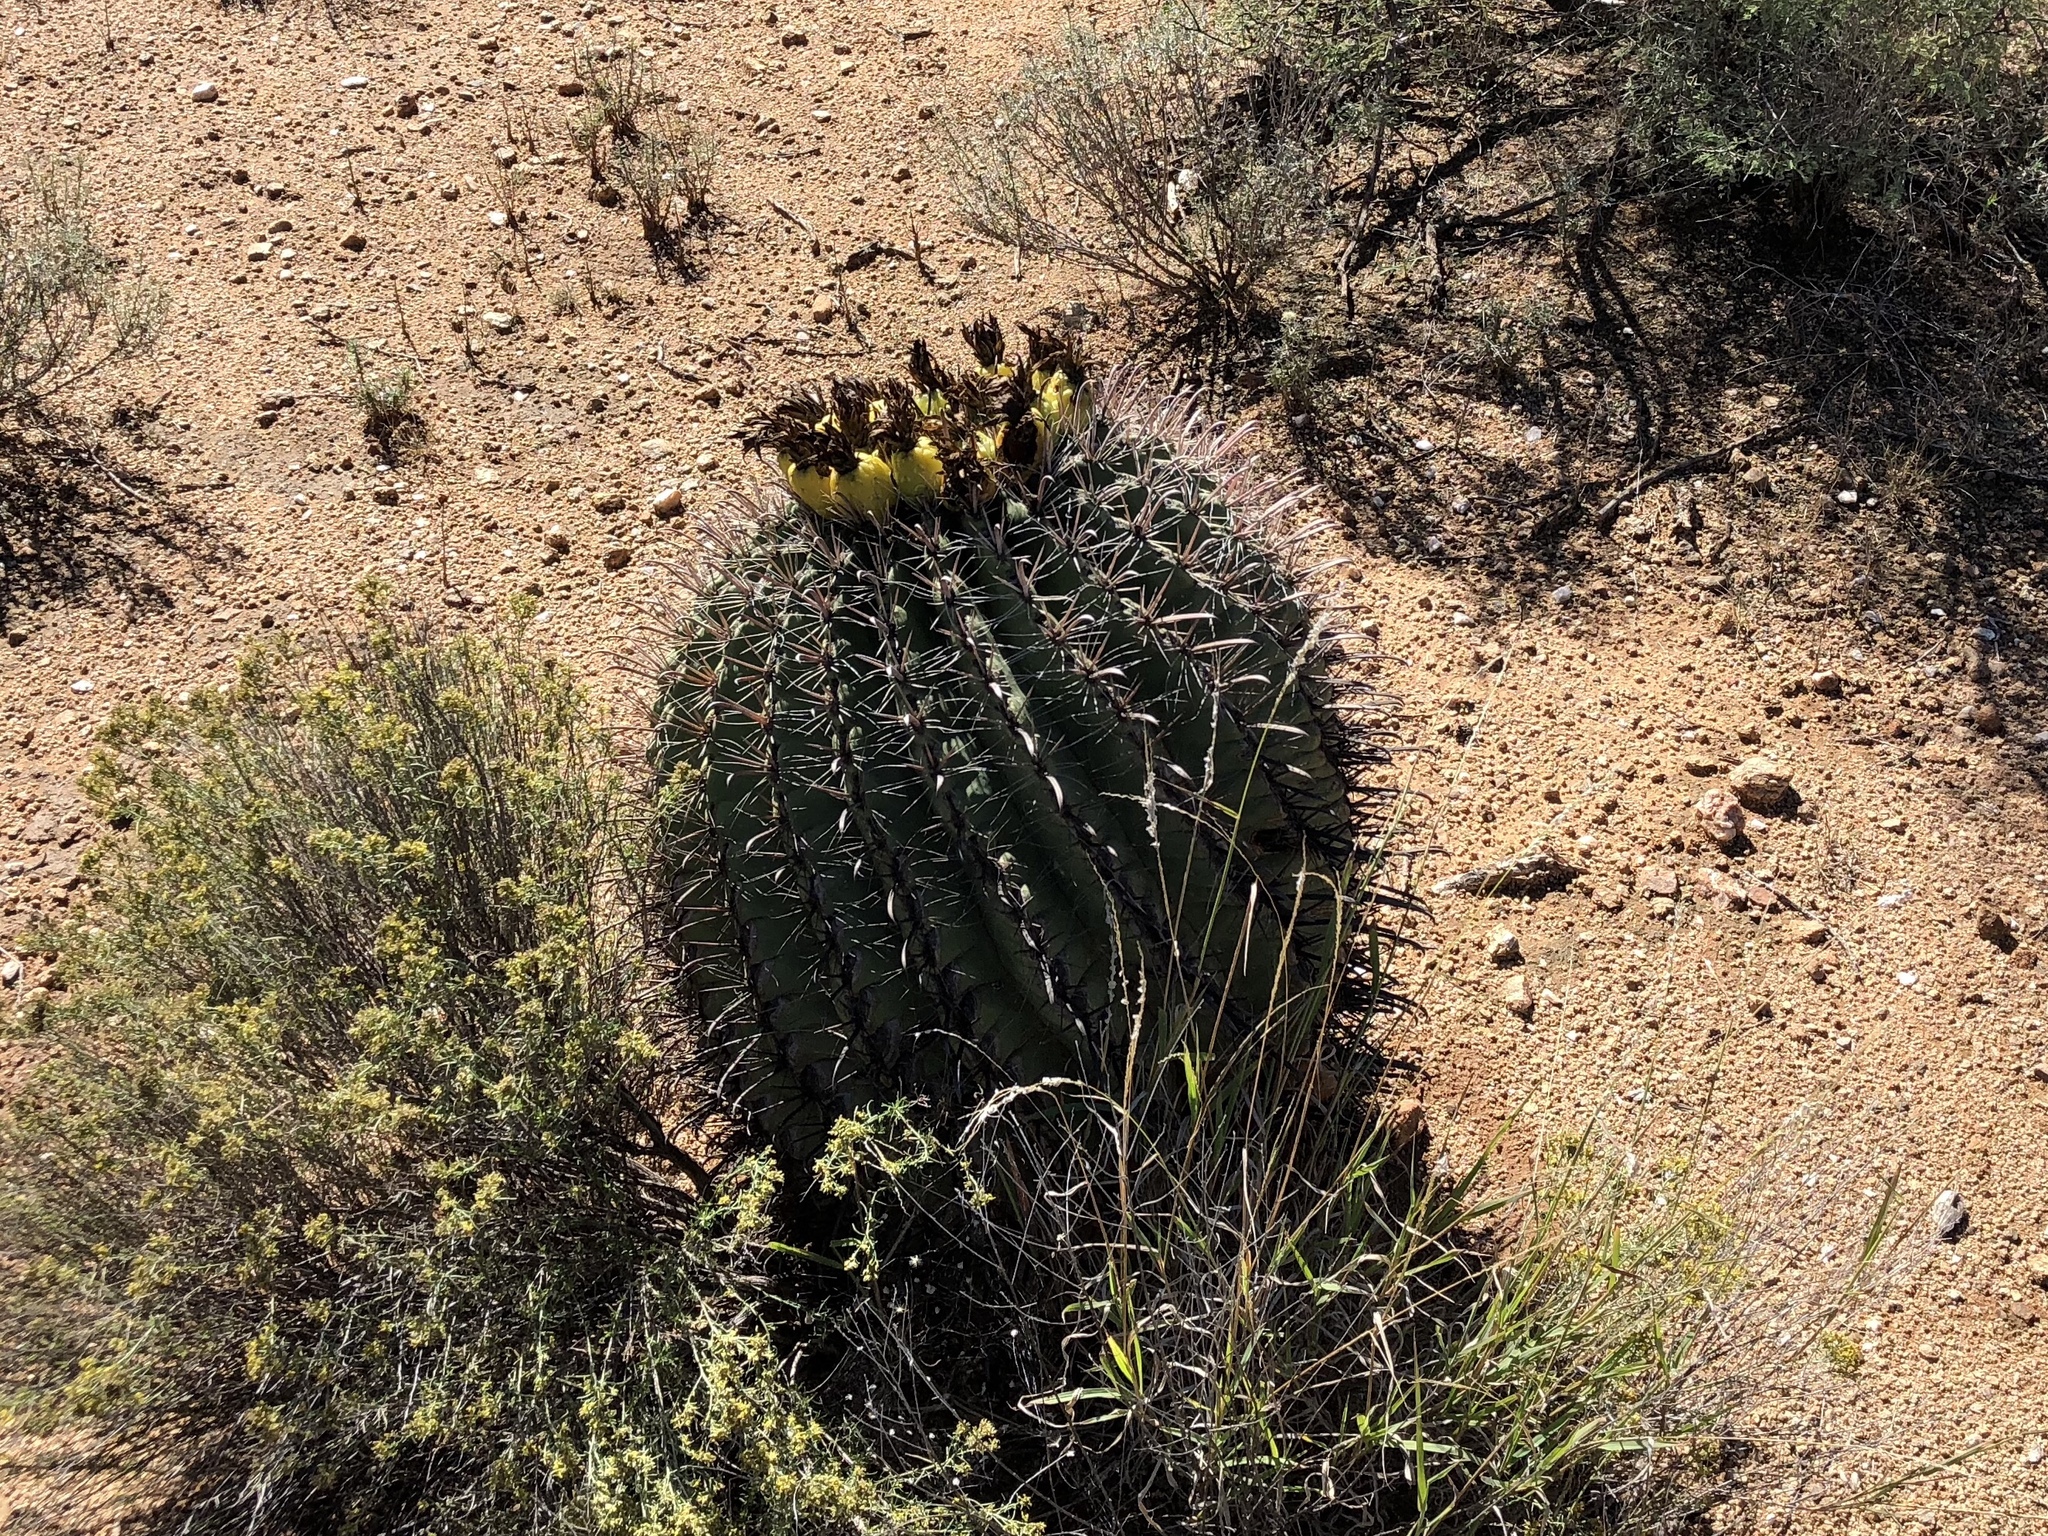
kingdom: Plantae
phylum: Tracheophyta
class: Magnoliopsida
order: Caryophyllales
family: Cactaceae
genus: Ferocactus
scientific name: Ferocactus wislizeni
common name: Candy barrel cactus
